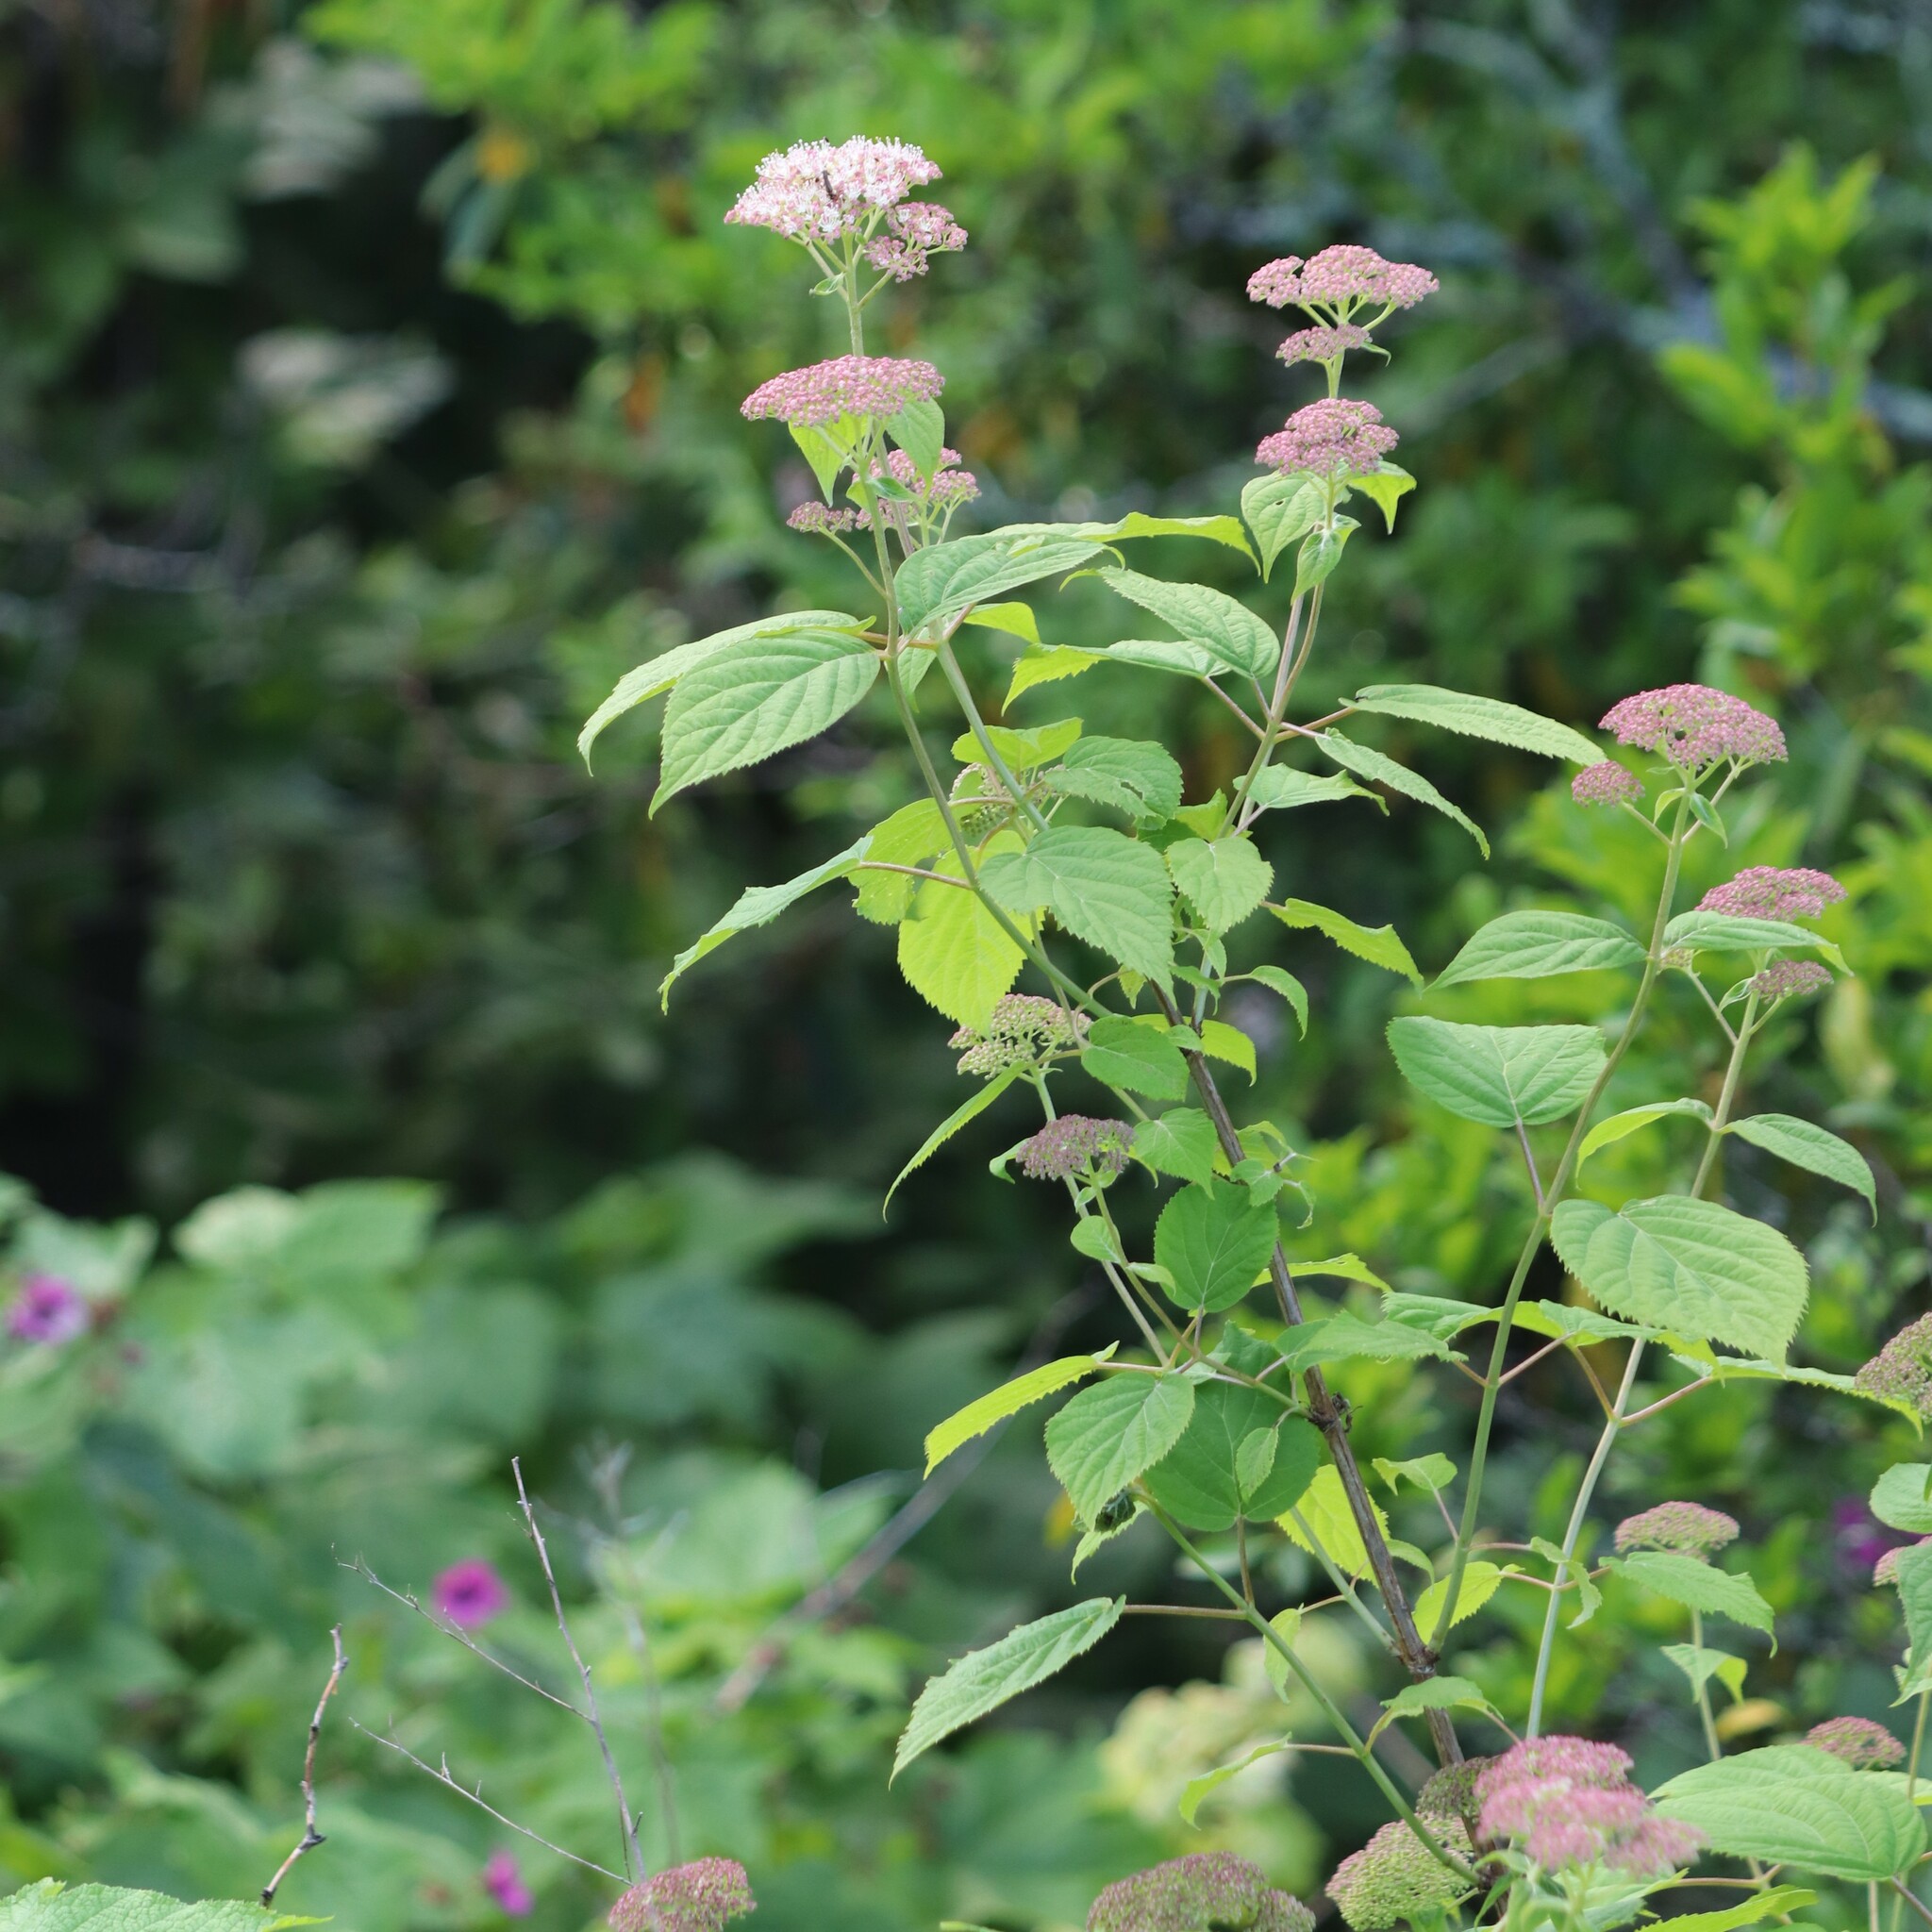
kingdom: Plantae
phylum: Tracheophyta
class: Magnoliopsida
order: Cornales
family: Hydrangeaceae
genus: Hydrangea
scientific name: Hydrangea arborescens
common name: Sevenbark
